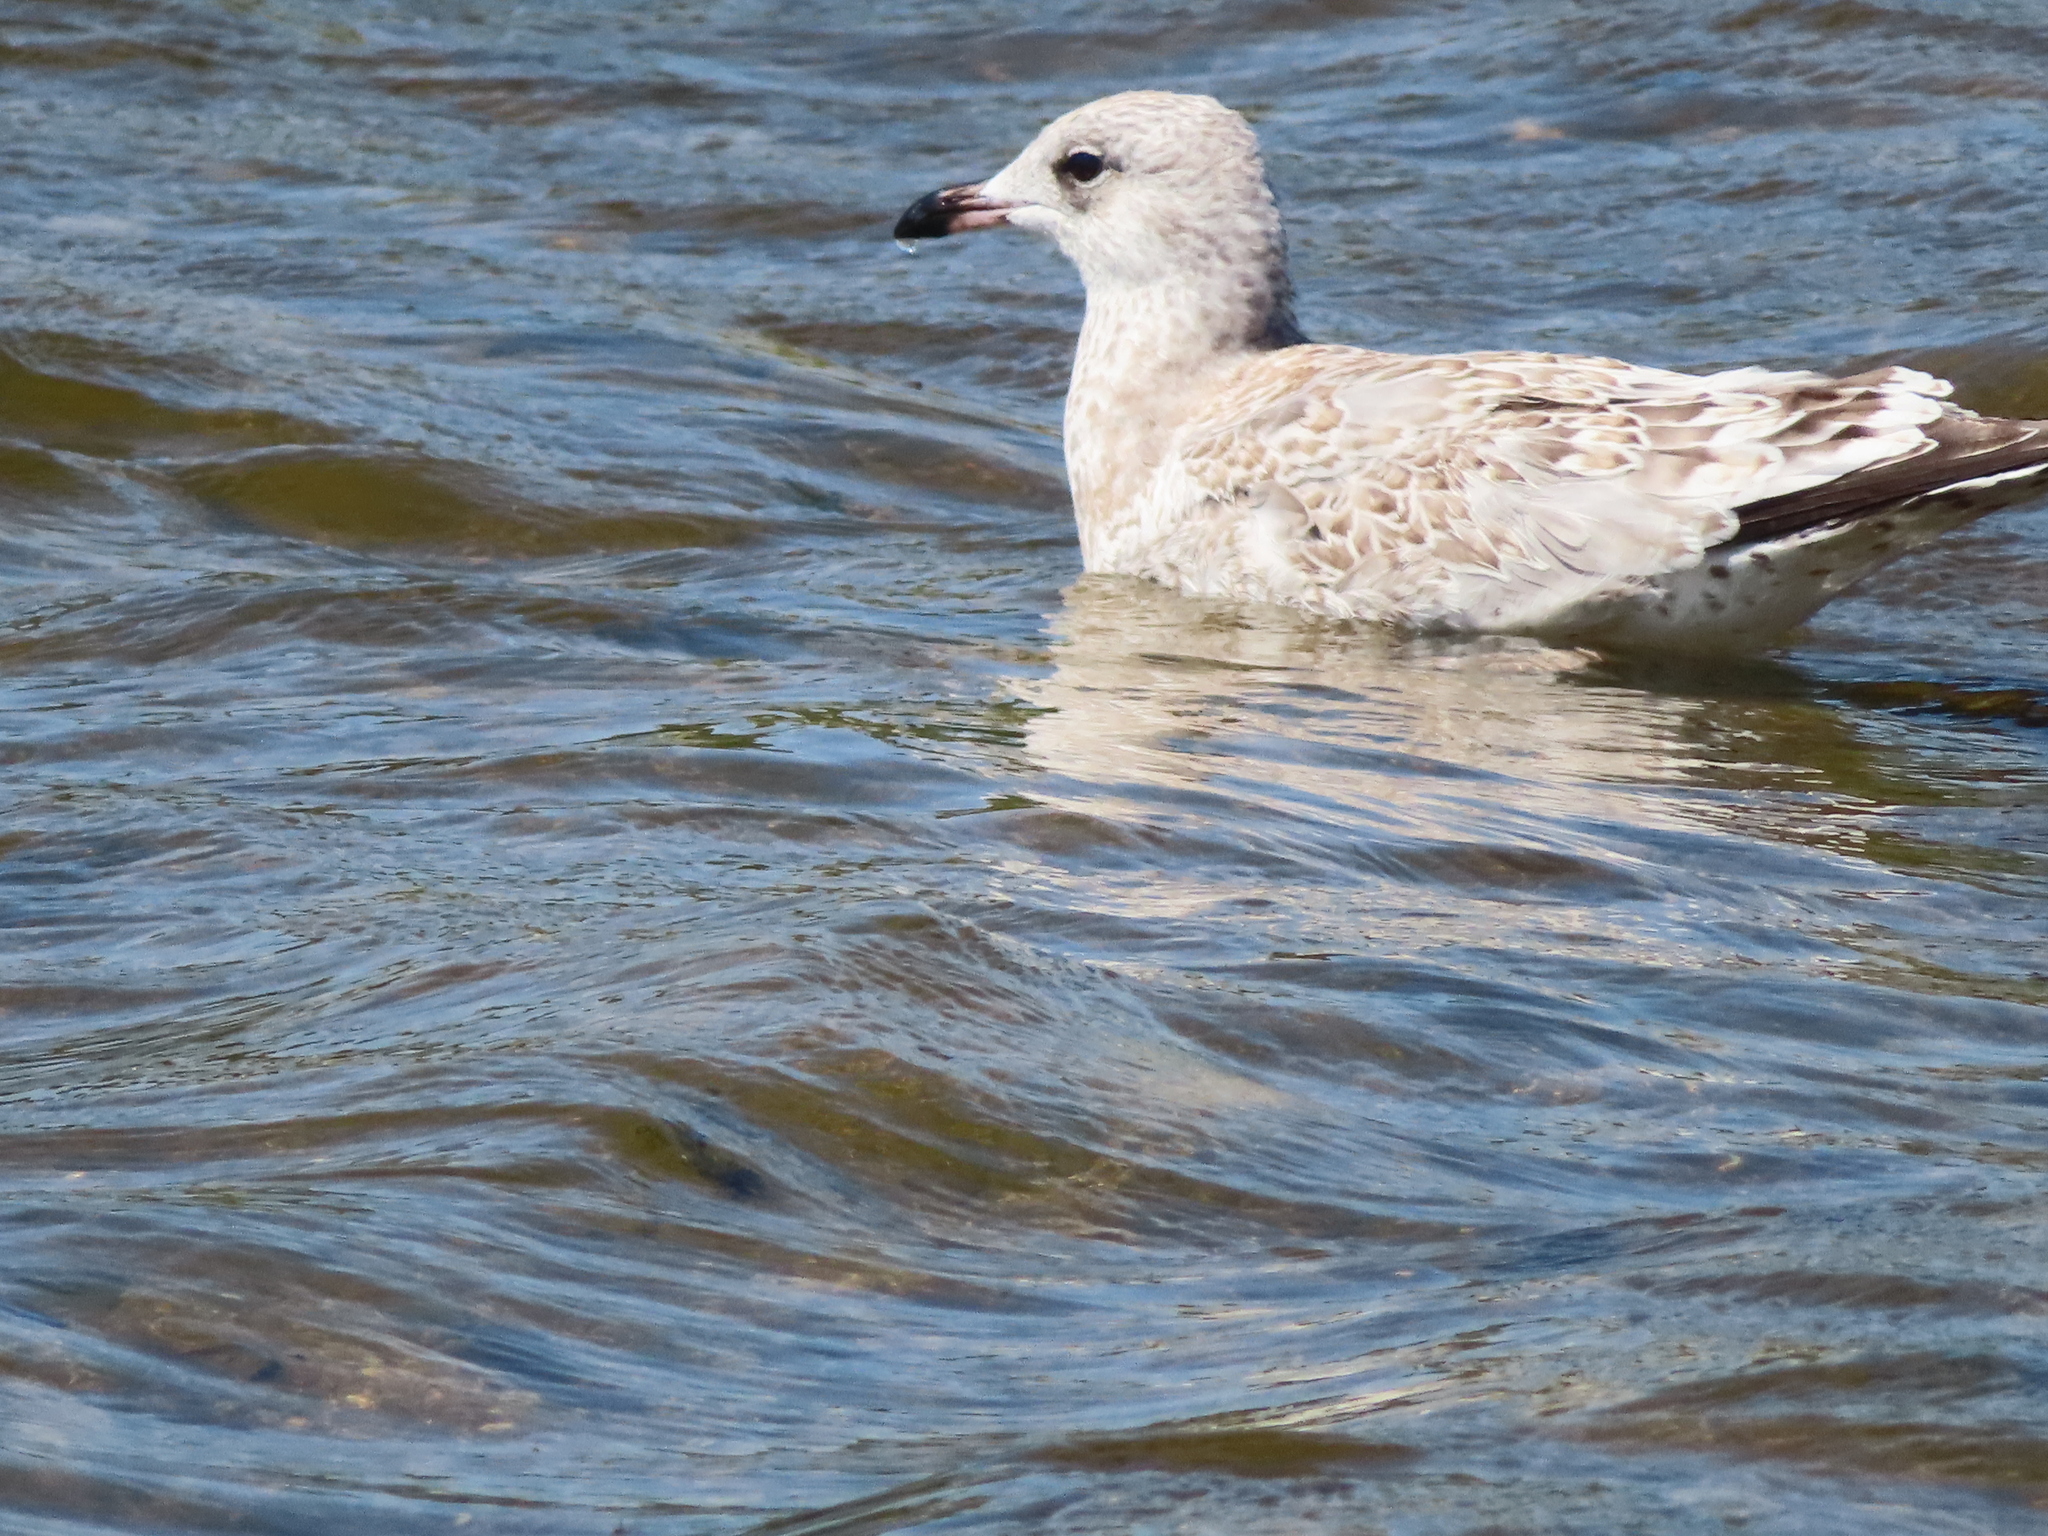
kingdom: Animalia
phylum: Chordata
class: Aves
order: Charadriiformes
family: Laridae
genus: Larus
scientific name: Larus delawarensis
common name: Ring-billed gull
